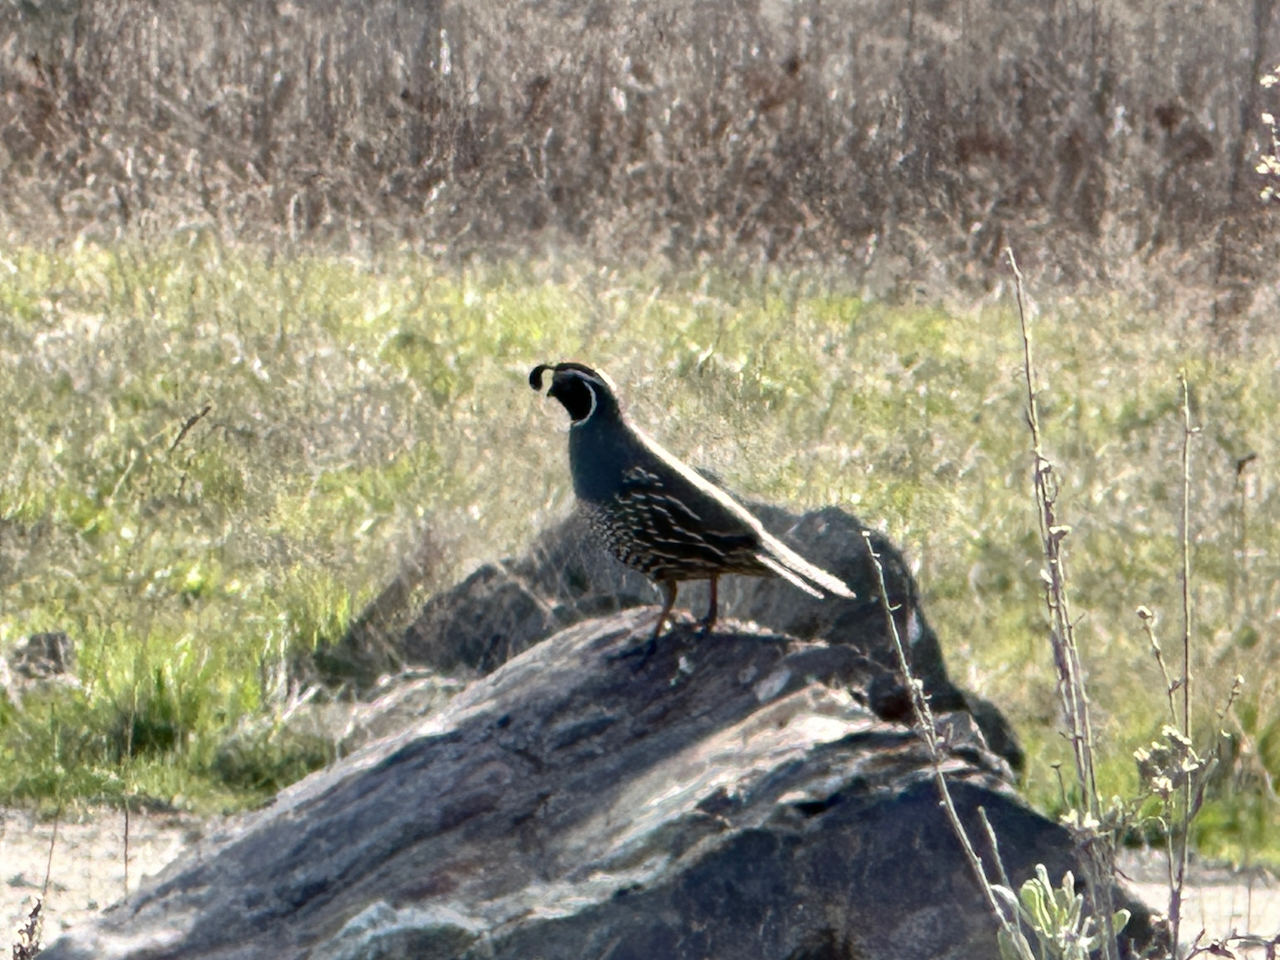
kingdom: Animalia
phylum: Chordata
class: Aves
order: Galliformes
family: Odontophoridae
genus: Callipepla
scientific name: Callipepla californica
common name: California quail
